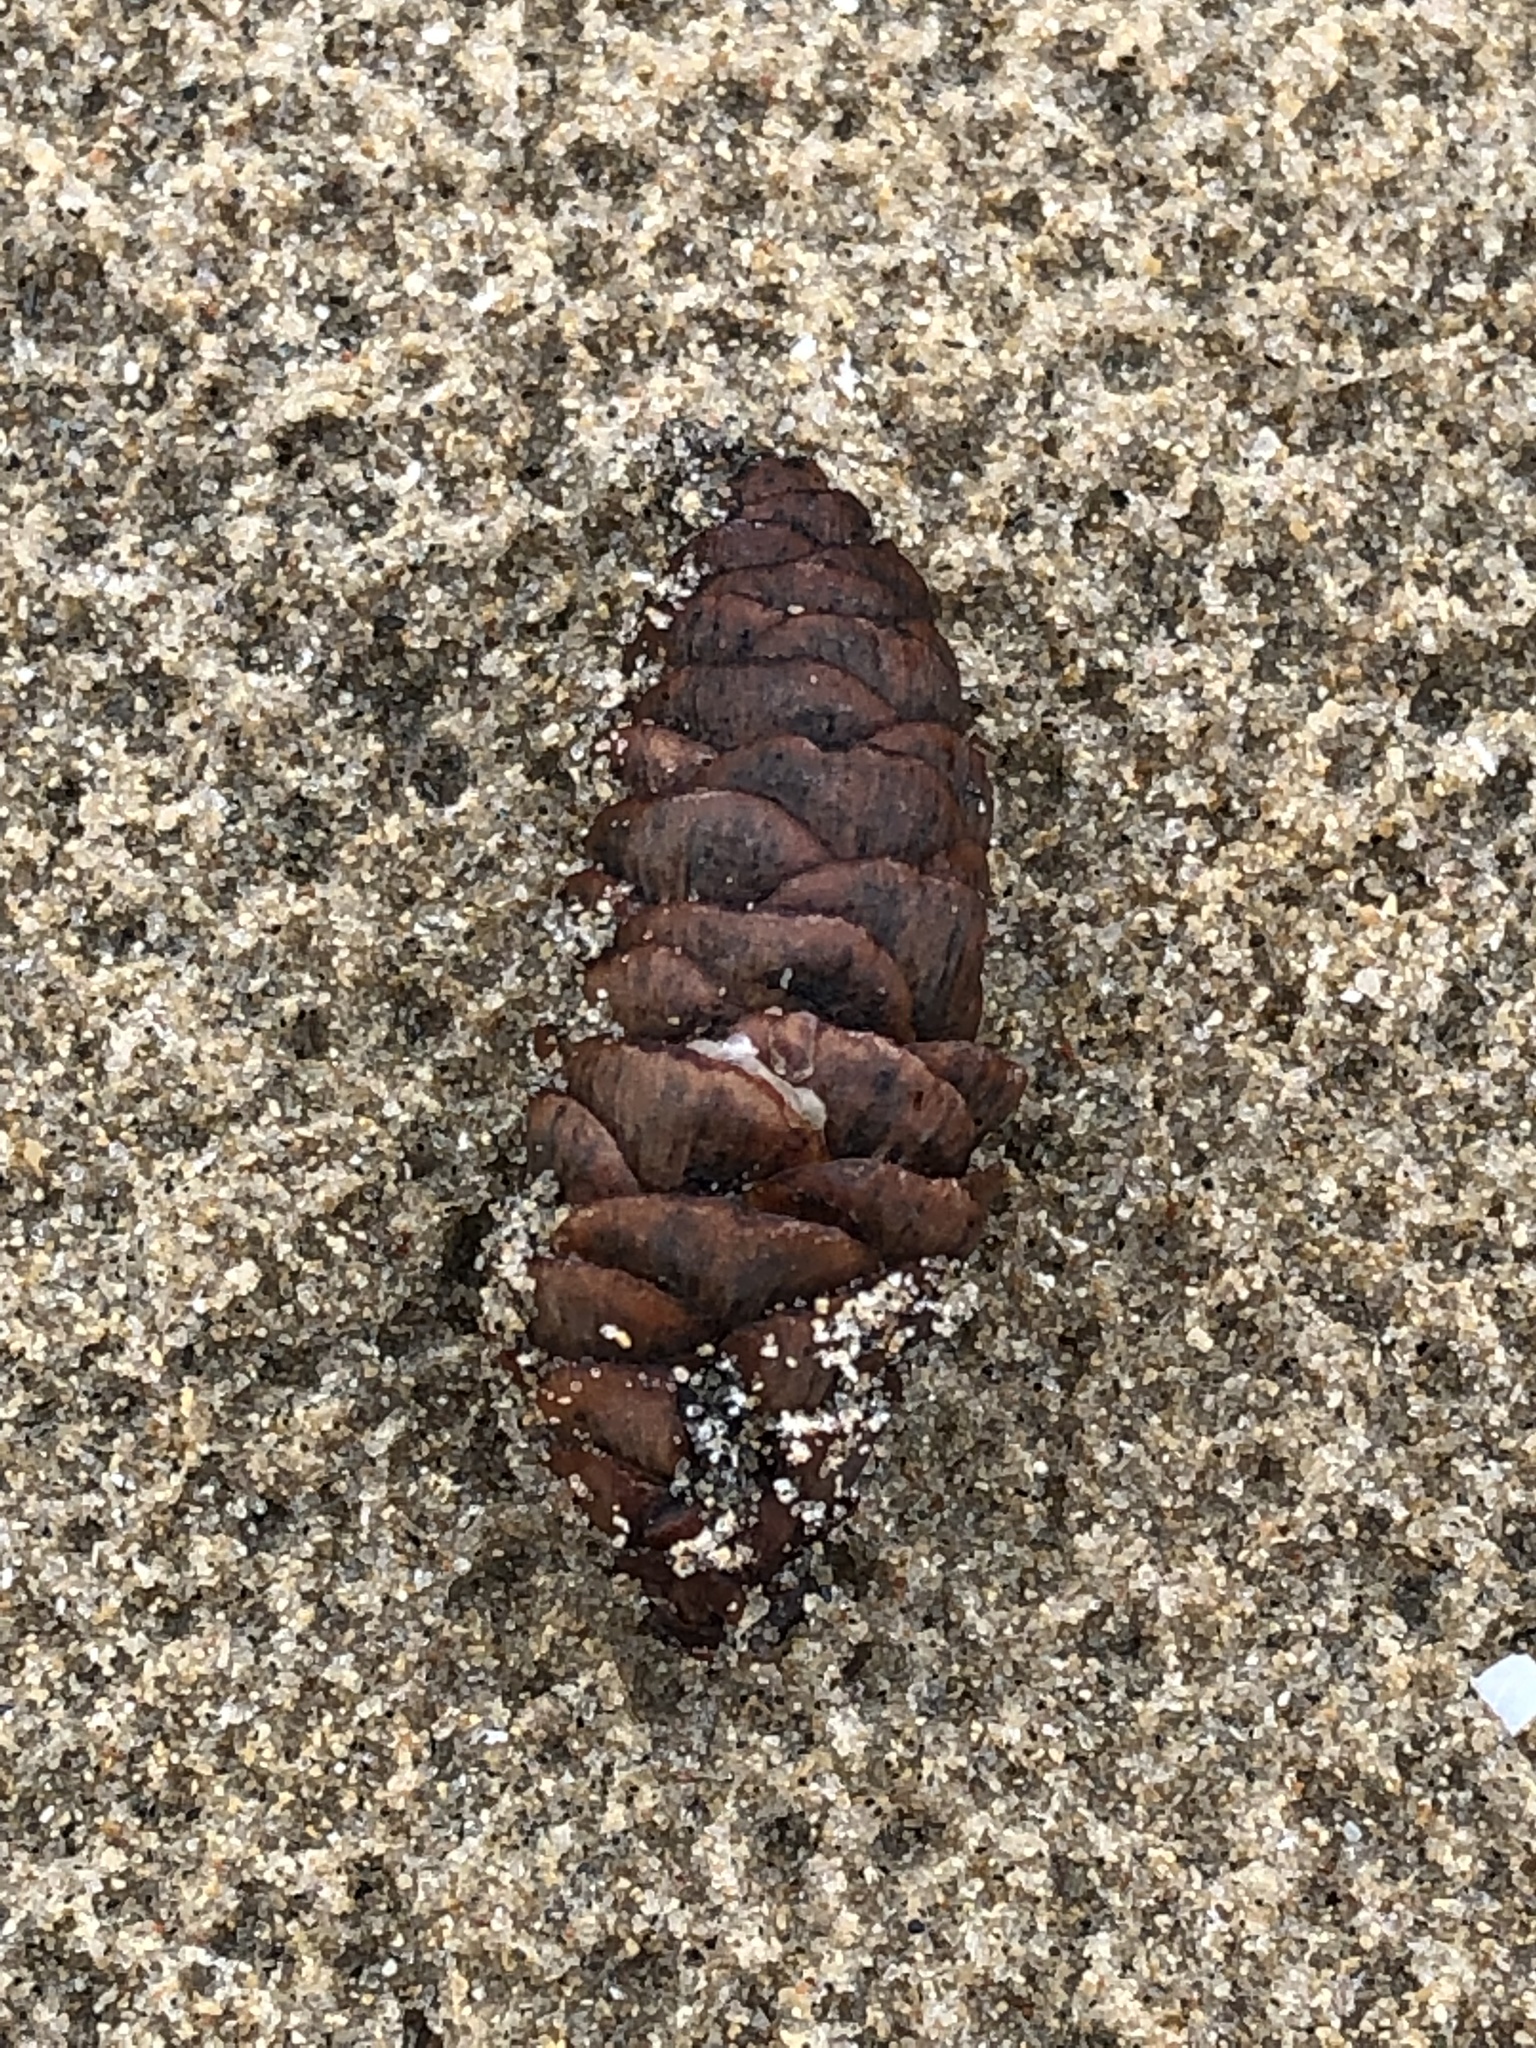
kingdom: Plantae
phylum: Tracheophyta
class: Pinopsida
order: Pinales
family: Pinaceae
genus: Picea
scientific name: Picea glauca
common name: White spruce
